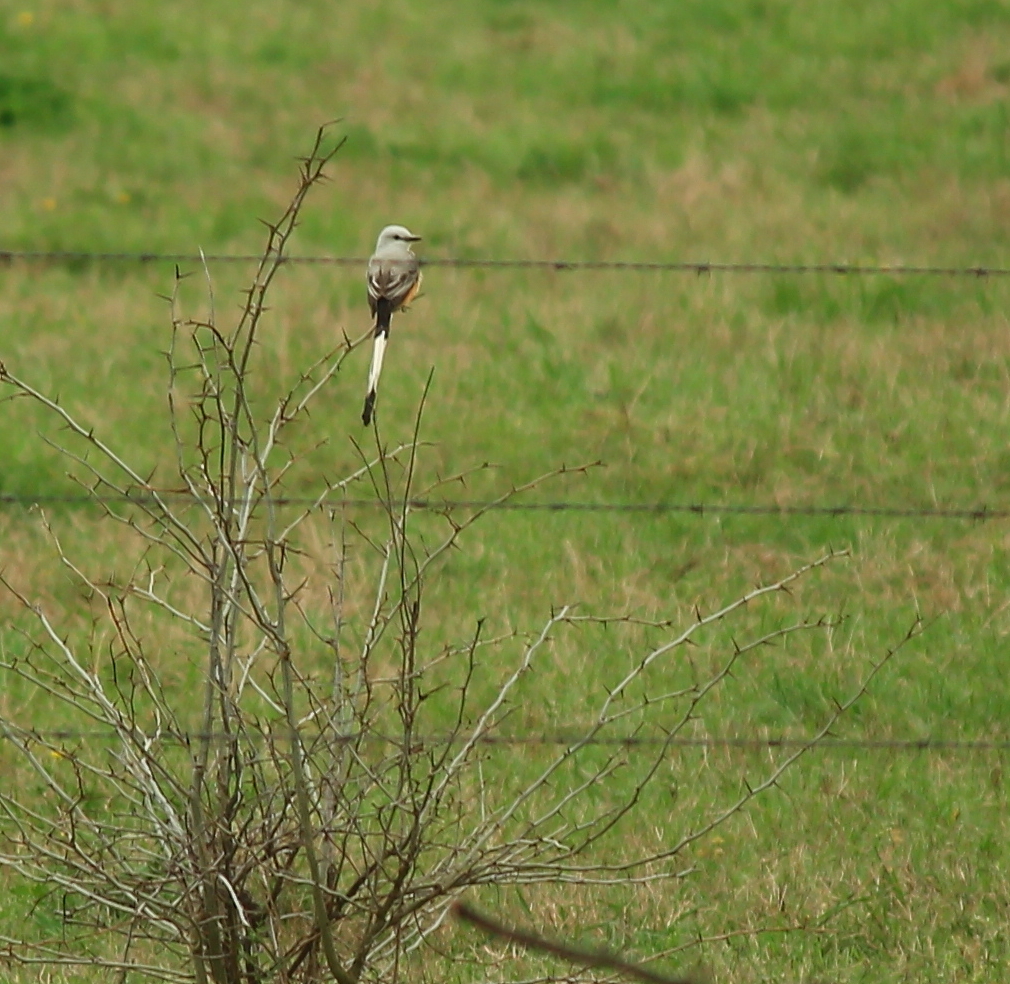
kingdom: Animalia
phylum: Chordata
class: Aves
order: Passeriformes
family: Tyrannidae
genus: Tyrannus
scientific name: Tyrannus forficatus
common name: Scissor-tailed flycatcher
